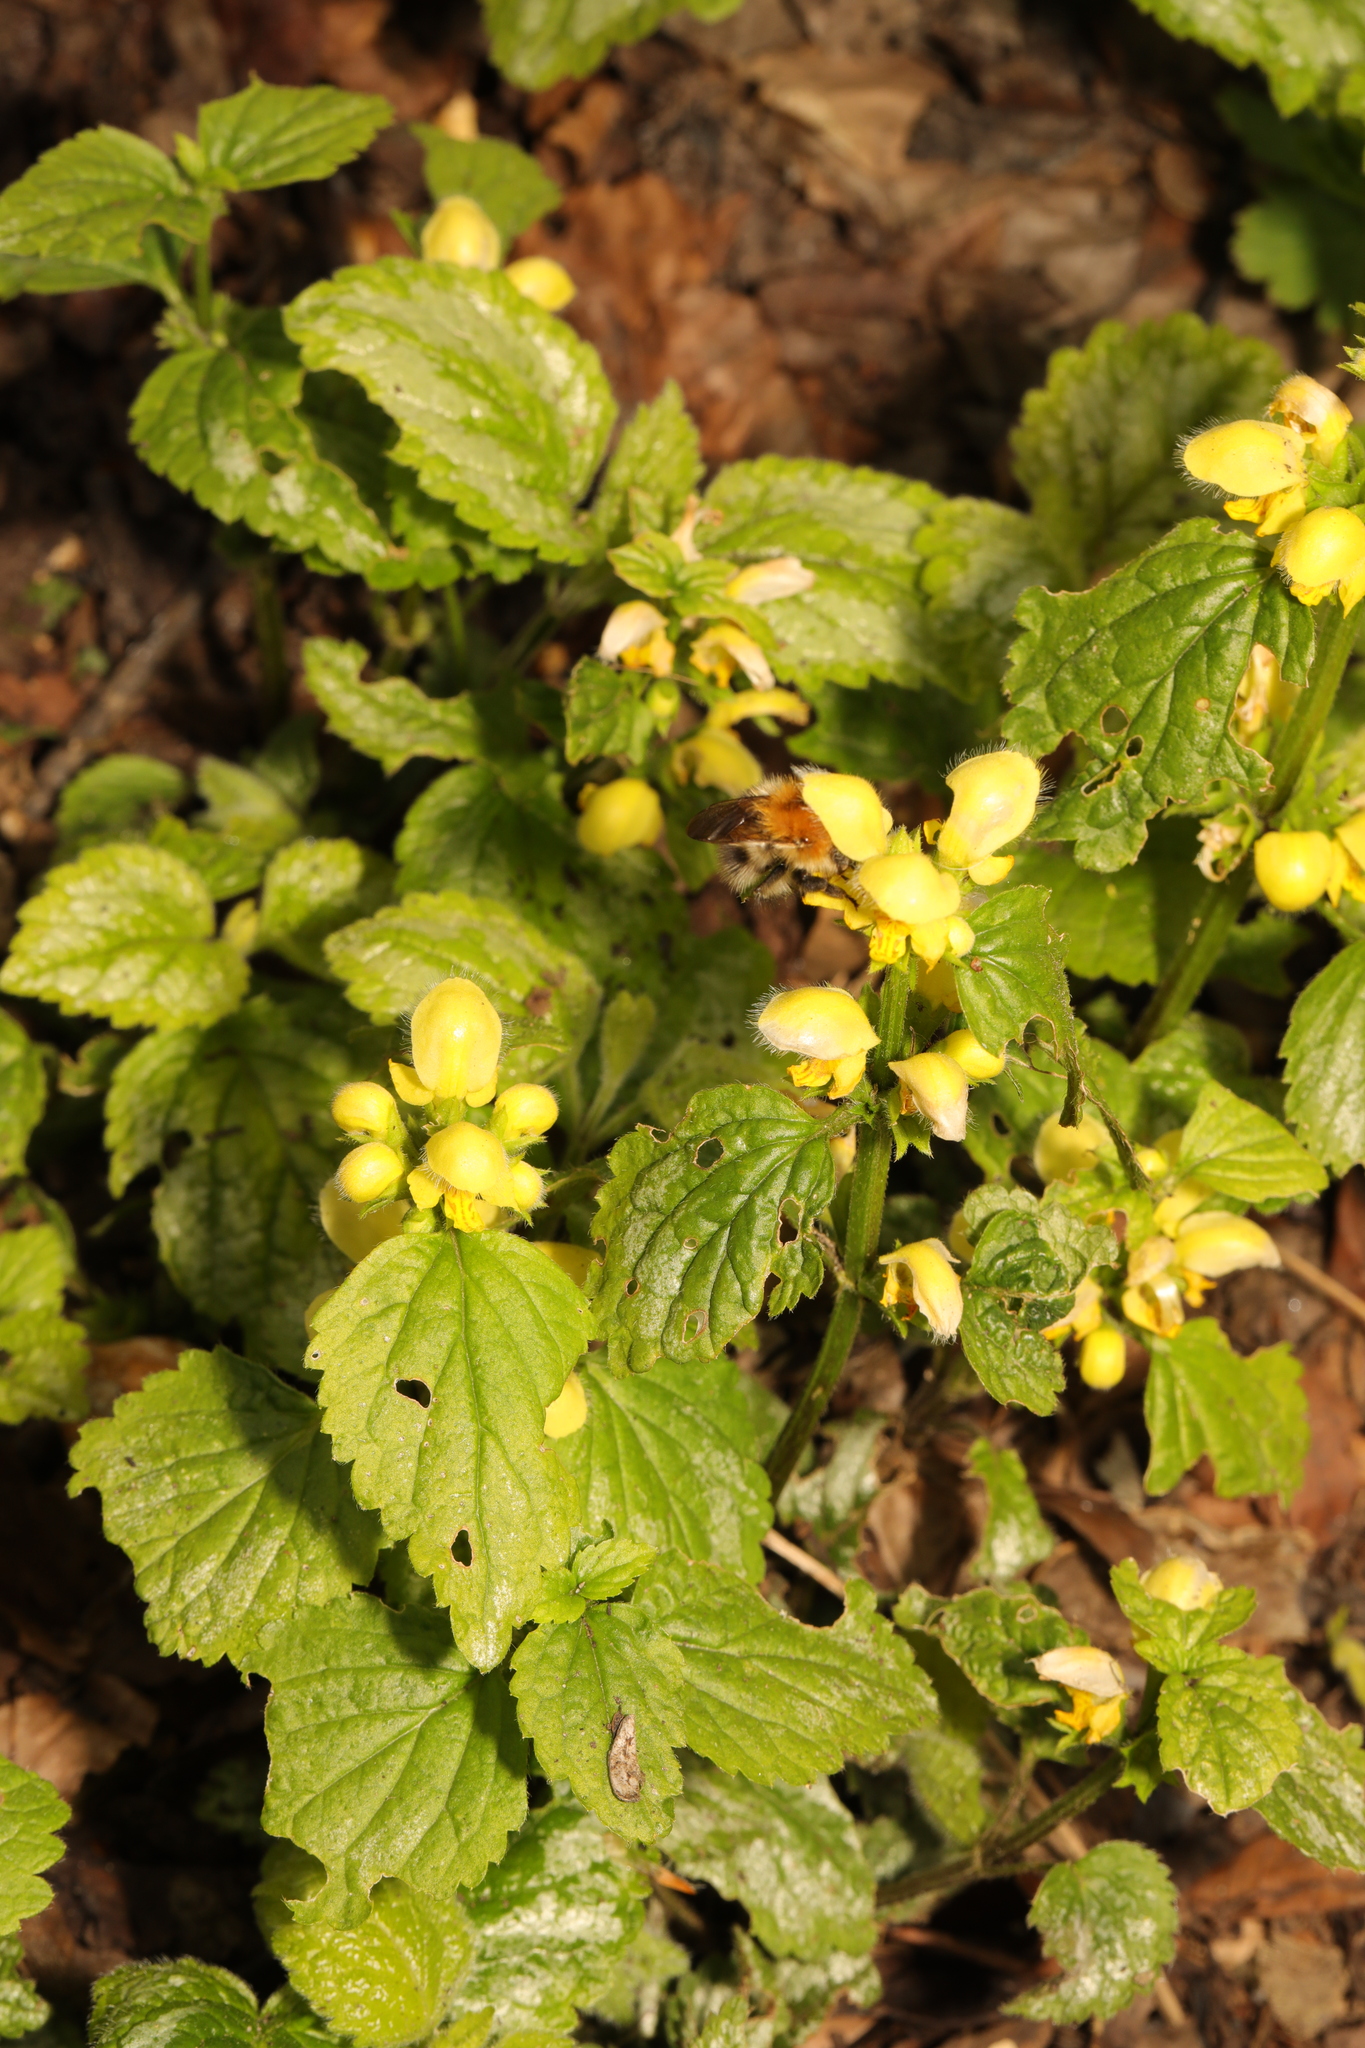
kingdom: Plantae
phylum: Tracheophyta
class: Magnoliopsida
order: Lamiales
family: Lamiaceae
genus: Lamium
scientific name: Lamium galeobdolon
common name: Yellow archangel
